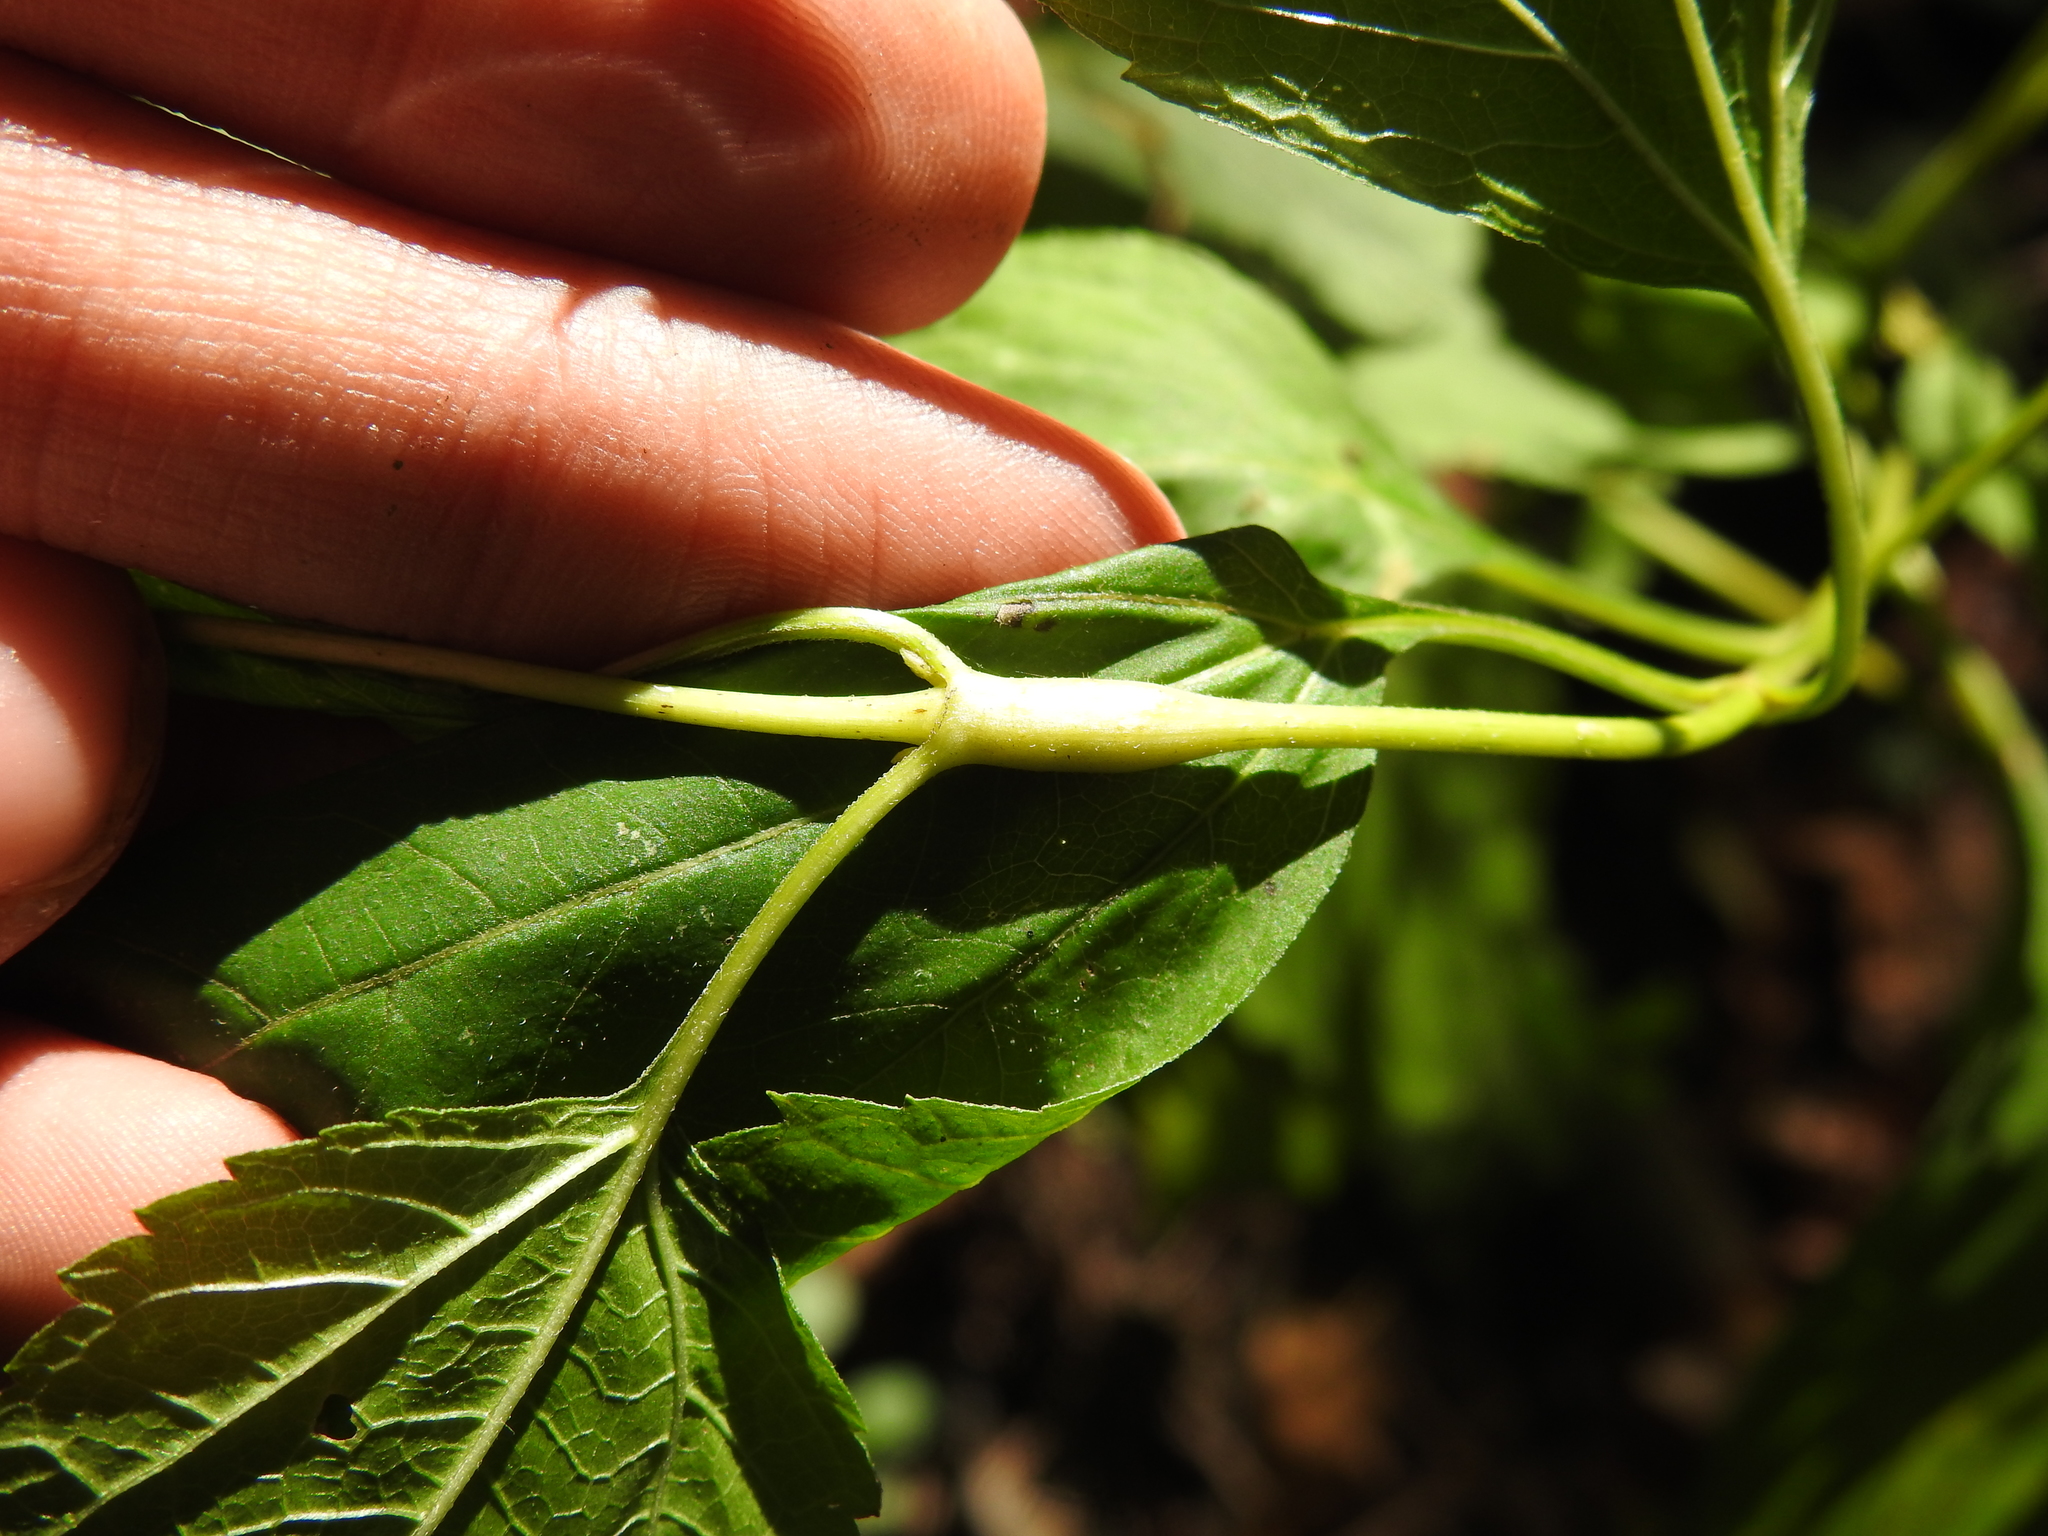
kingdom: Animalia
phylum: Arthropoda
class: Insecta
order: Diptera
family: Cecidomyiidae
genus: Neolasioptera
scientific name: Neolasioptera eupatorii
